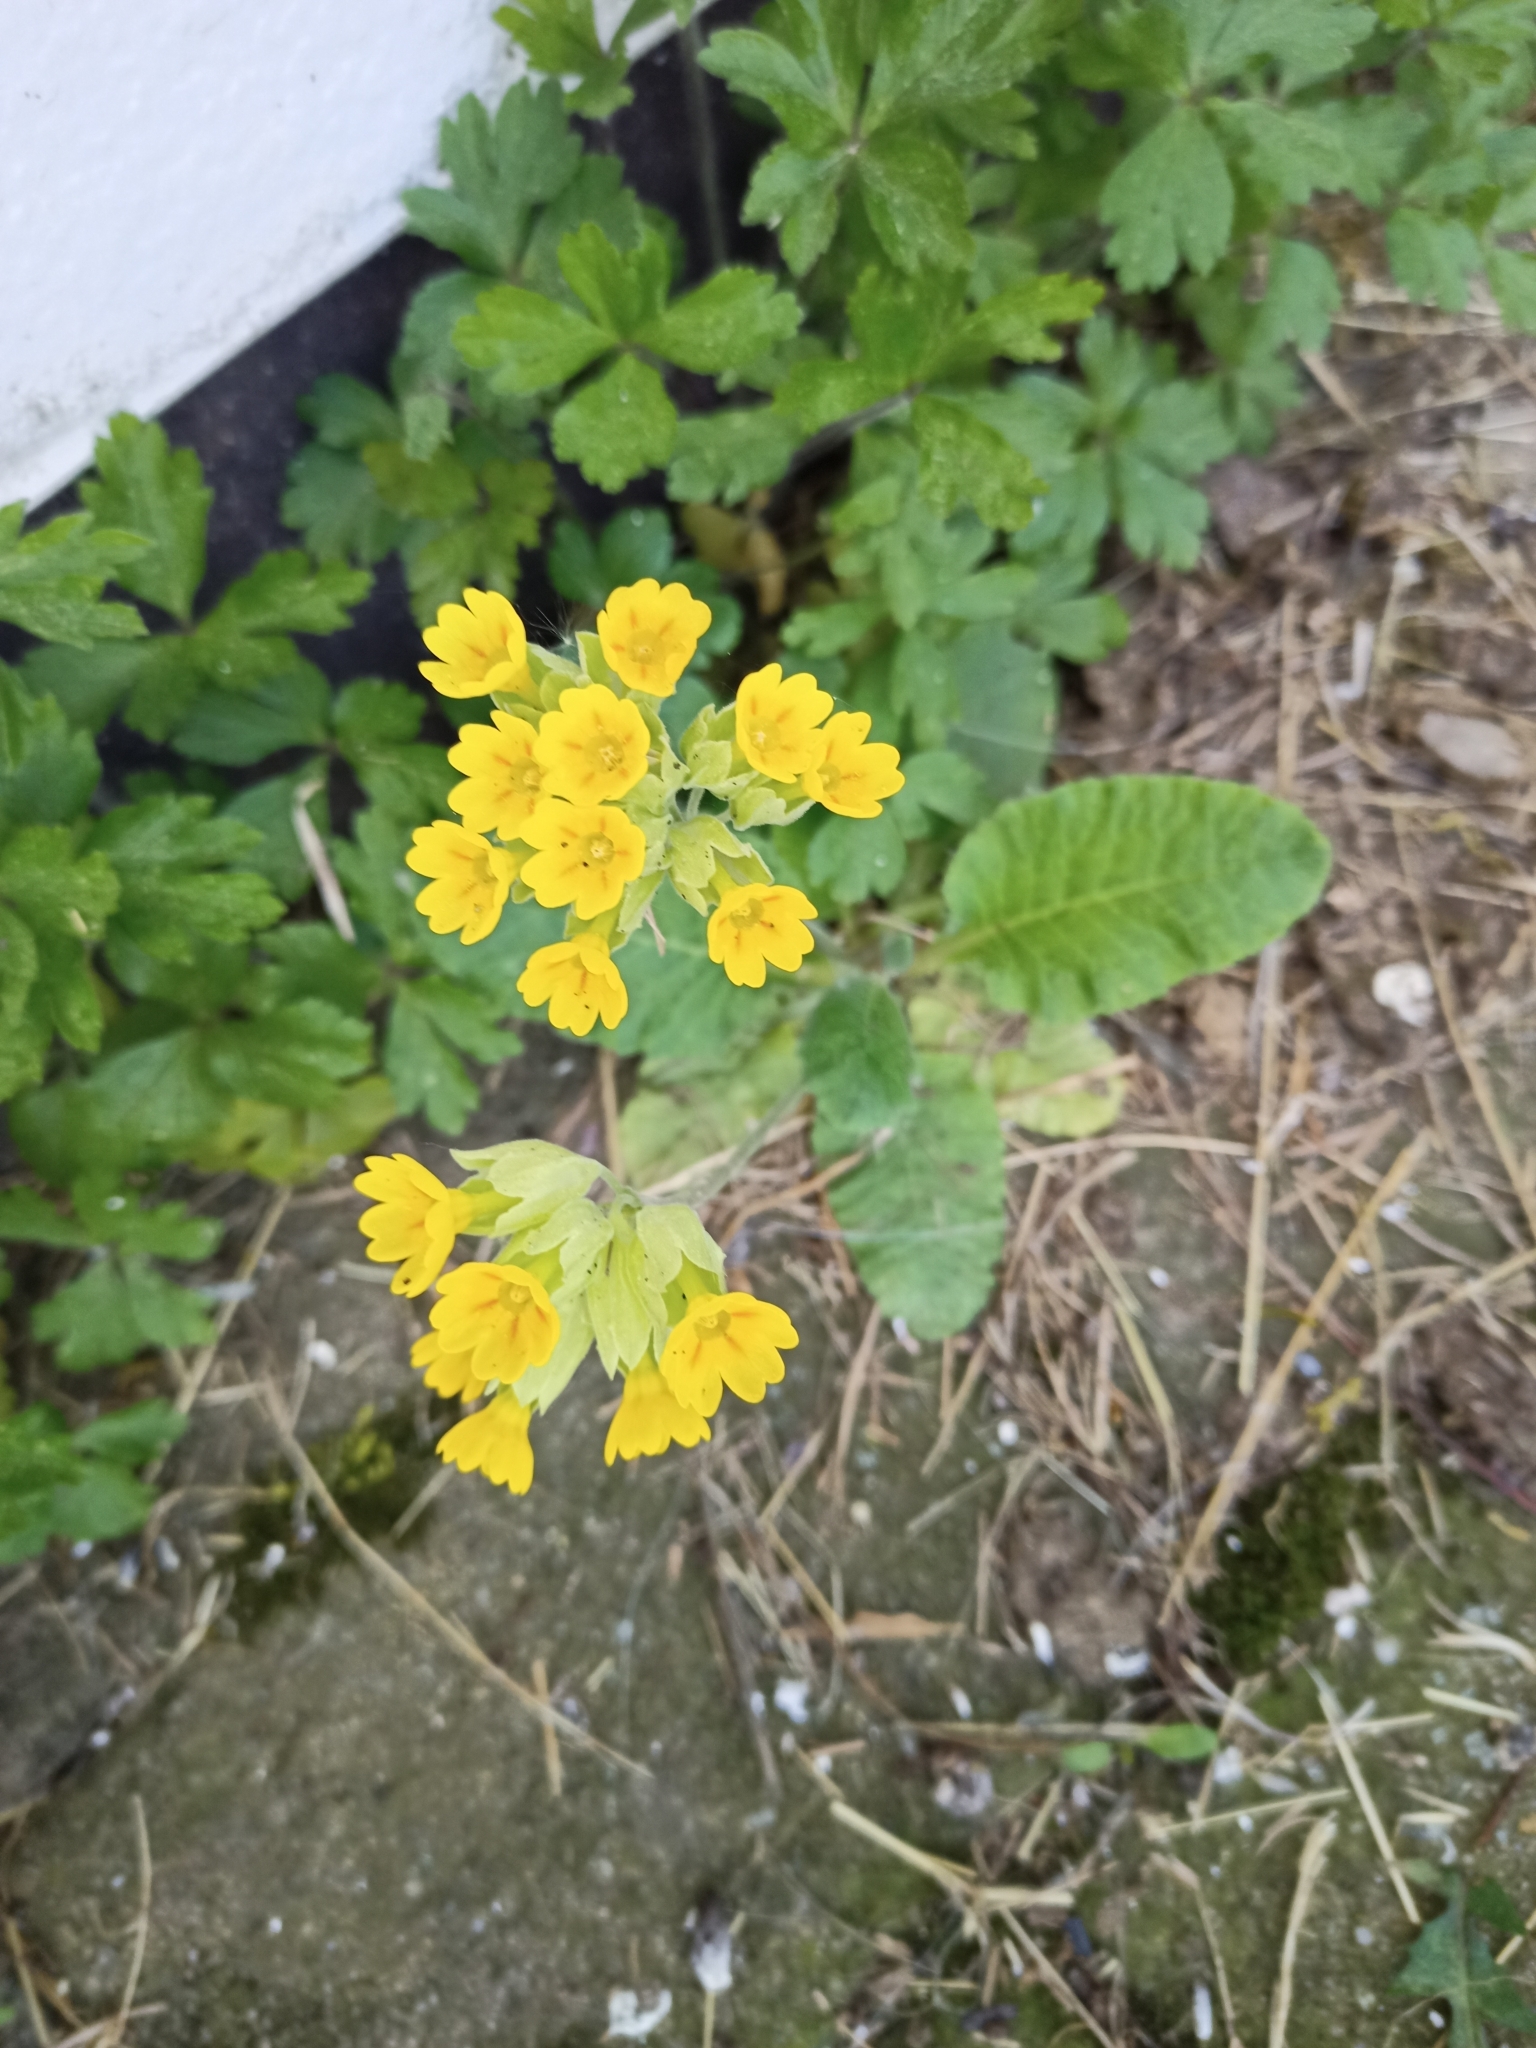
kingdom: Plantae
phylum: Tracheophyta
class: Magnoliopsida
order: Ericales
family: Primulaceae
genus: Primula
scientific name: Primula veris
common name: Cowslip
